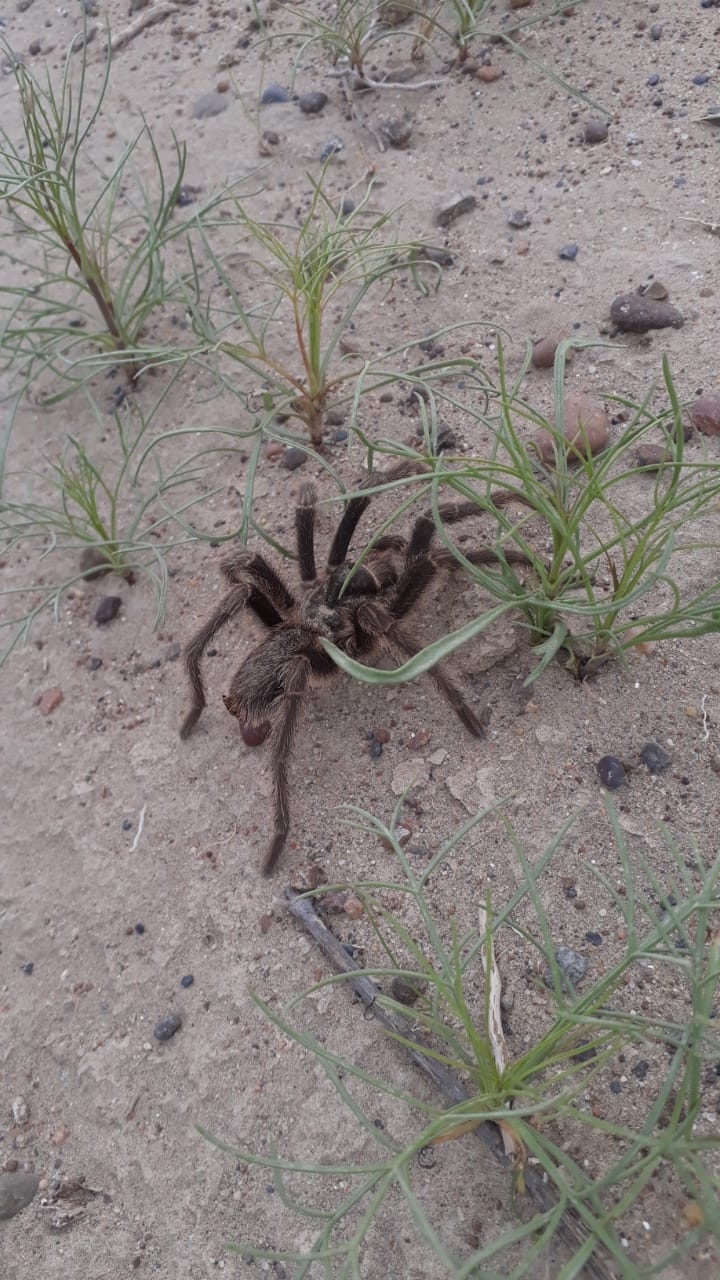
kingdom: Animalia
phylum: Arthropoda
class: Arachnida
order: Araneae
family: Theraphosidae
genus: Grammostola
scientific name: Grammostola doeringi
